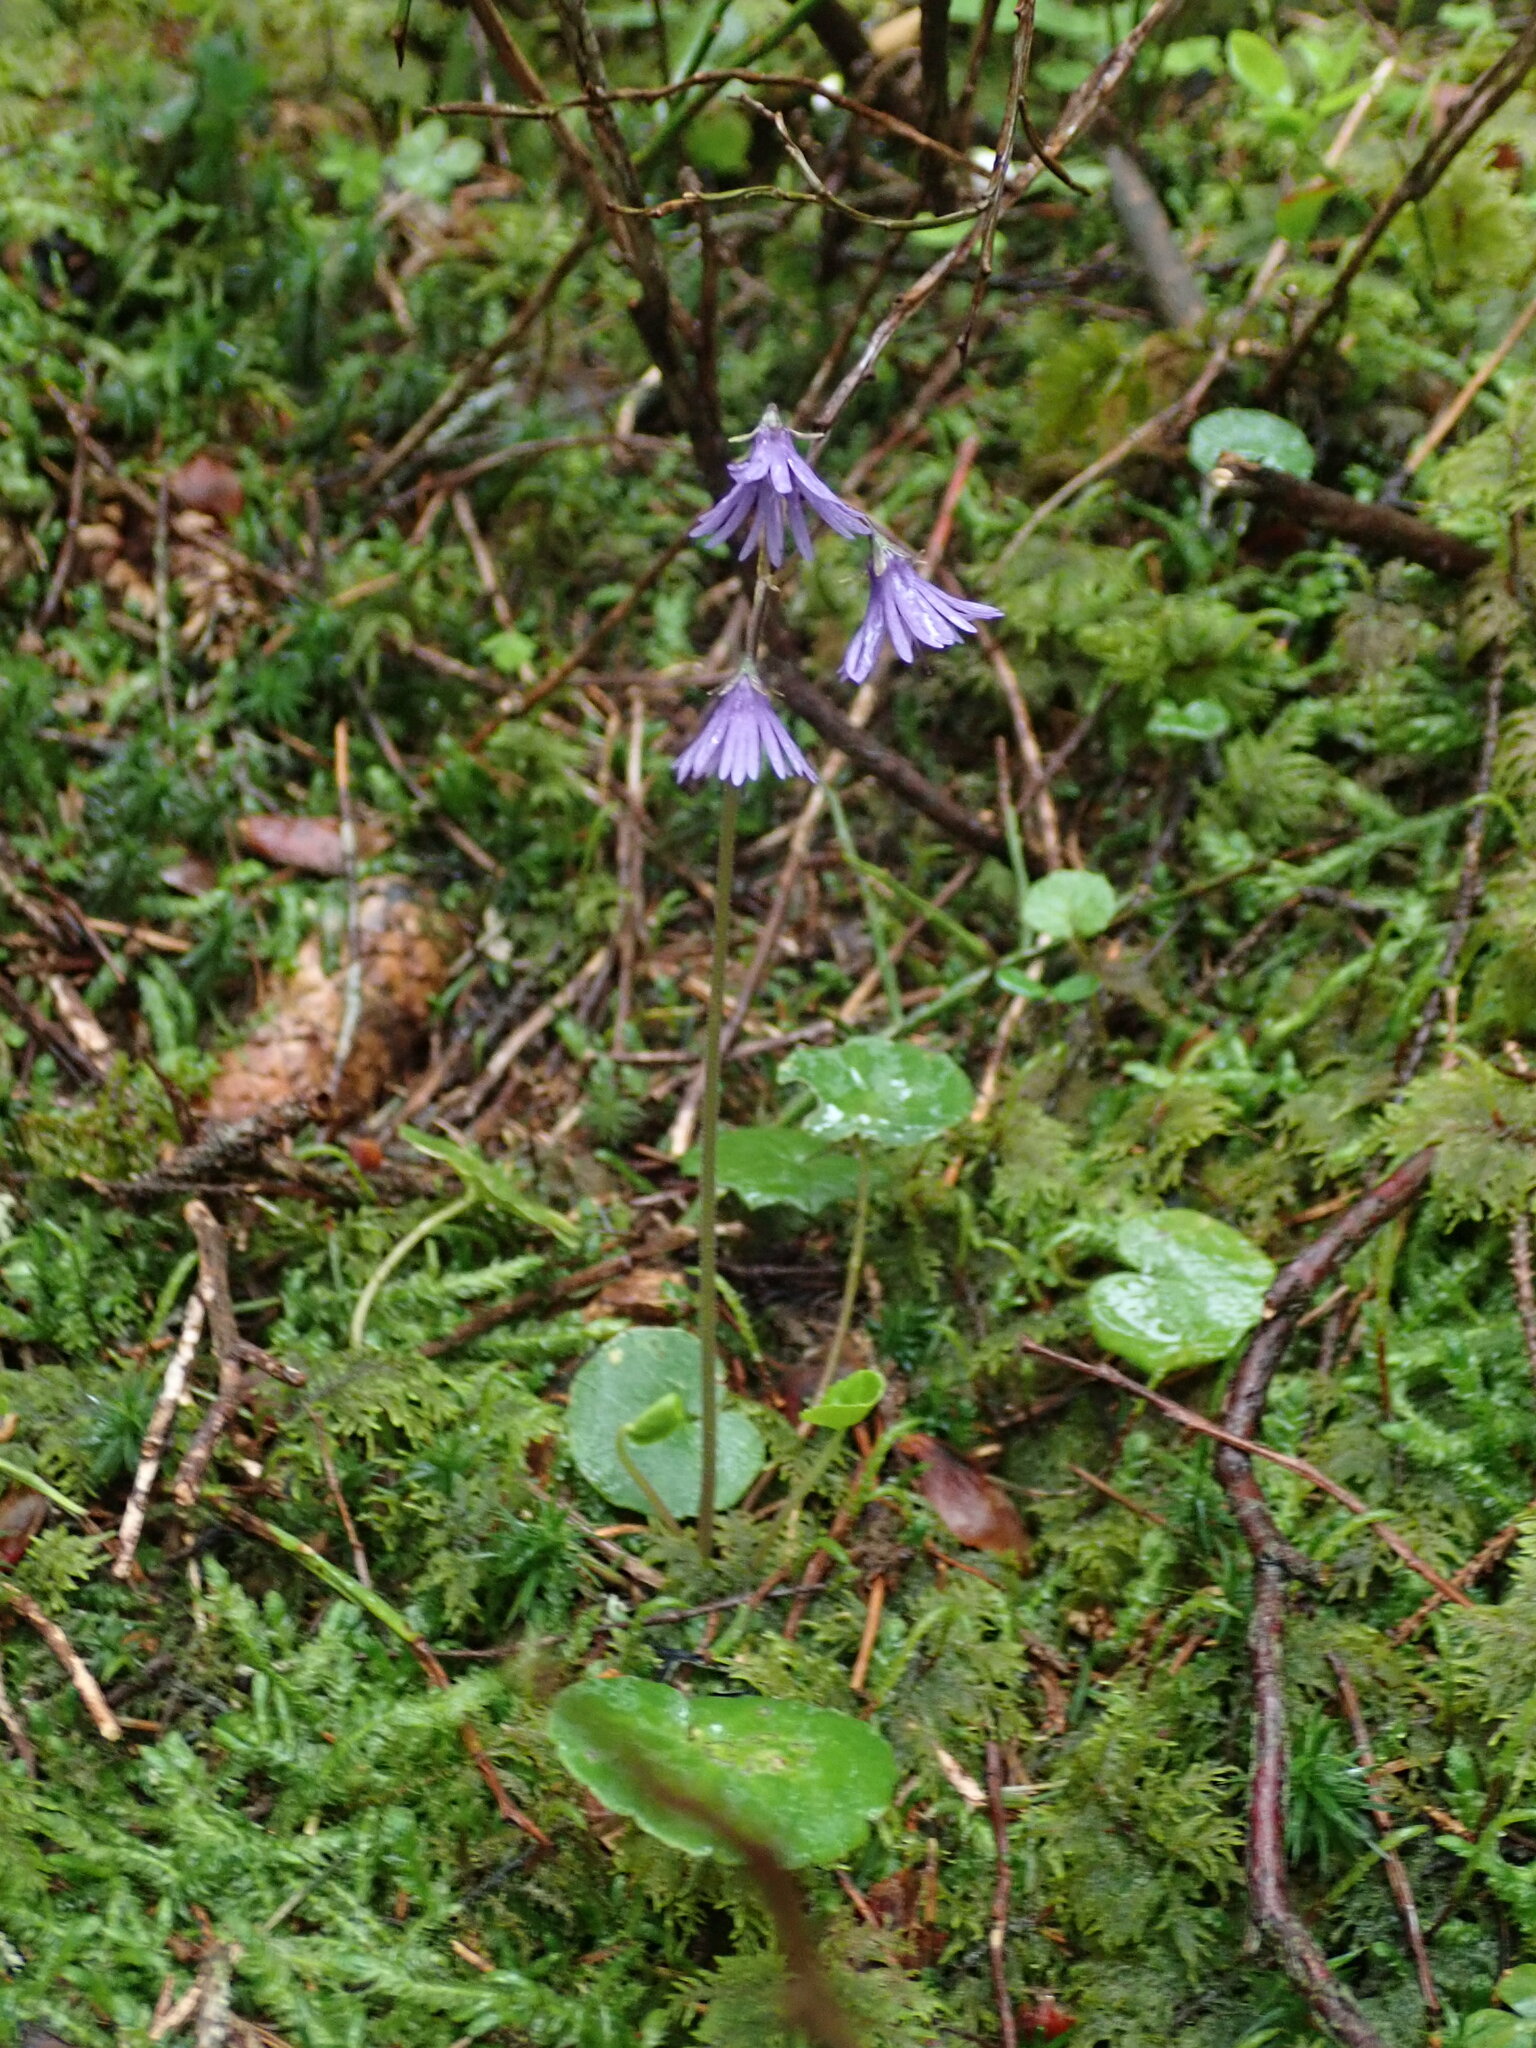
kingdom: Plantae
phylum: Tracheophyta
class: Magnoliopsida
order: Ericales
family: Primulaceae
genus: Soldanella
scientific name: Soldanella carpatica
